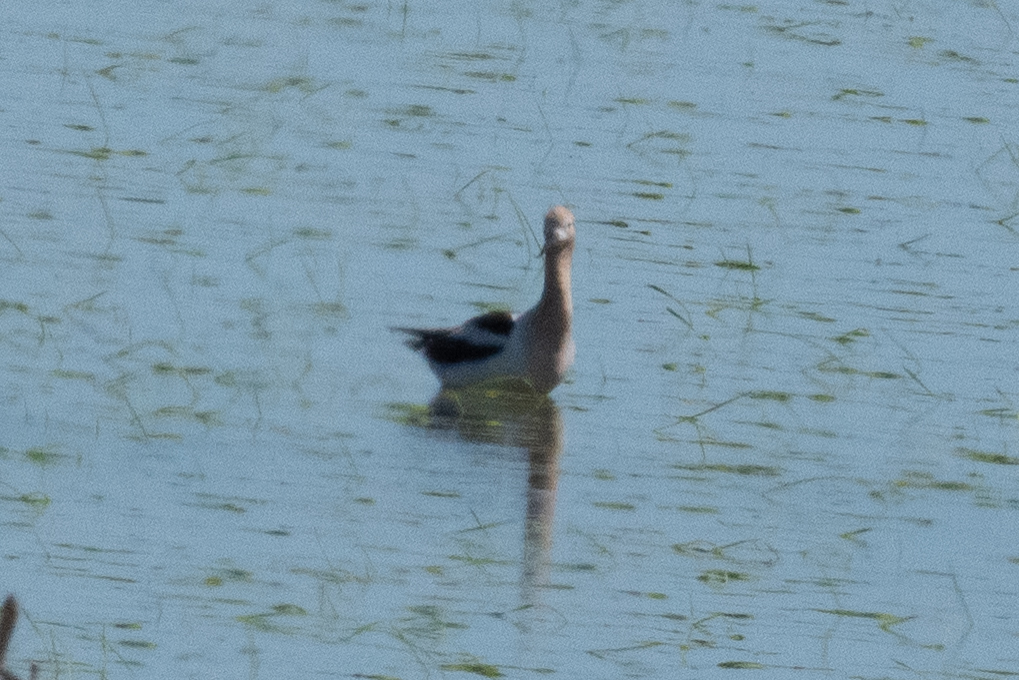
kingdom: Animalia
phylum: Chordata
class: Aves
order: Charadriiformes
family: Recurvirostridae
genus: Recurvirostra
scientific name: Recurvirostra americana
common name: American avocet
